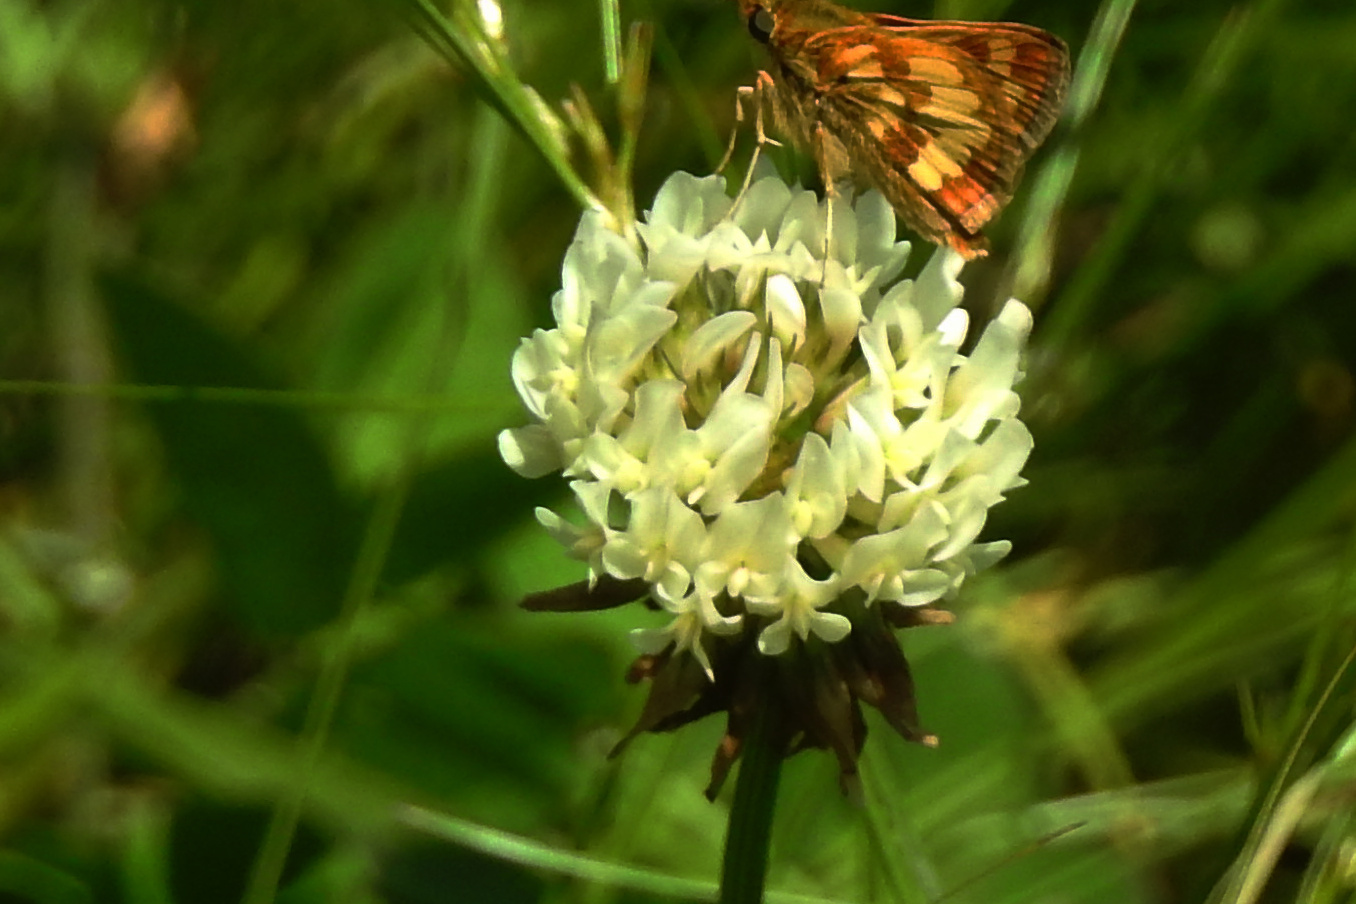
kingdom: Plantae
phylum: Tracheophyta
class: Magnoliopsida
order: Fabales
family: Fabaceae
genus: Trifolium
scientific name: Trifolium repens
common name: White clover
